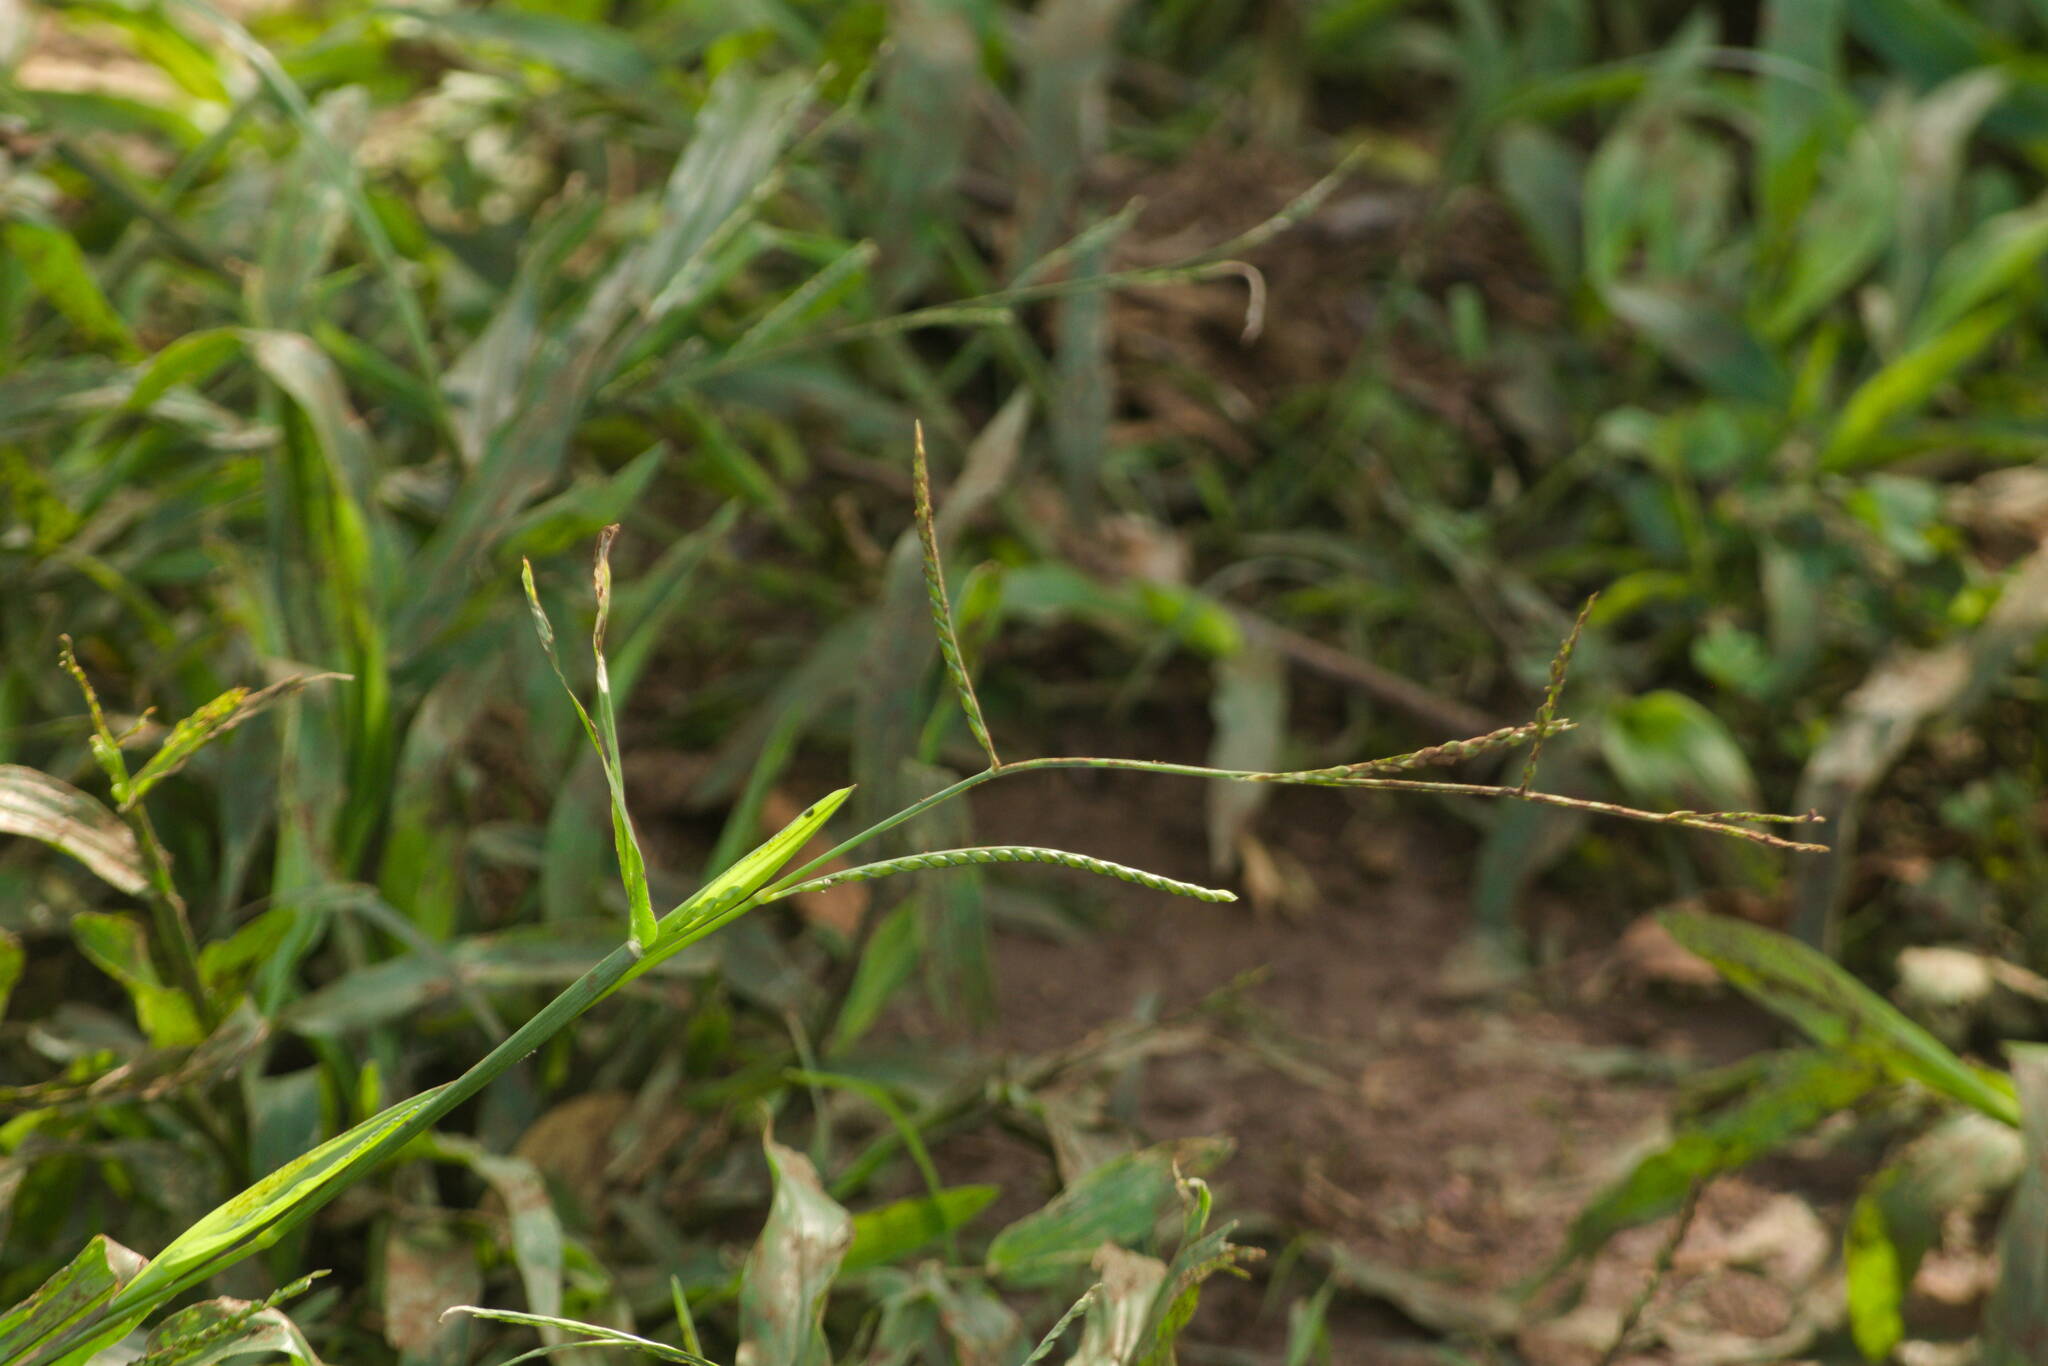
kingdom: Plantae
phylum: Tracheophyta
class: Liliopsida
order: Poales
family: Poaceae
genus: Urochloa
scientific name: Urochloa plantaginea
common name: Plantain signalgrass
